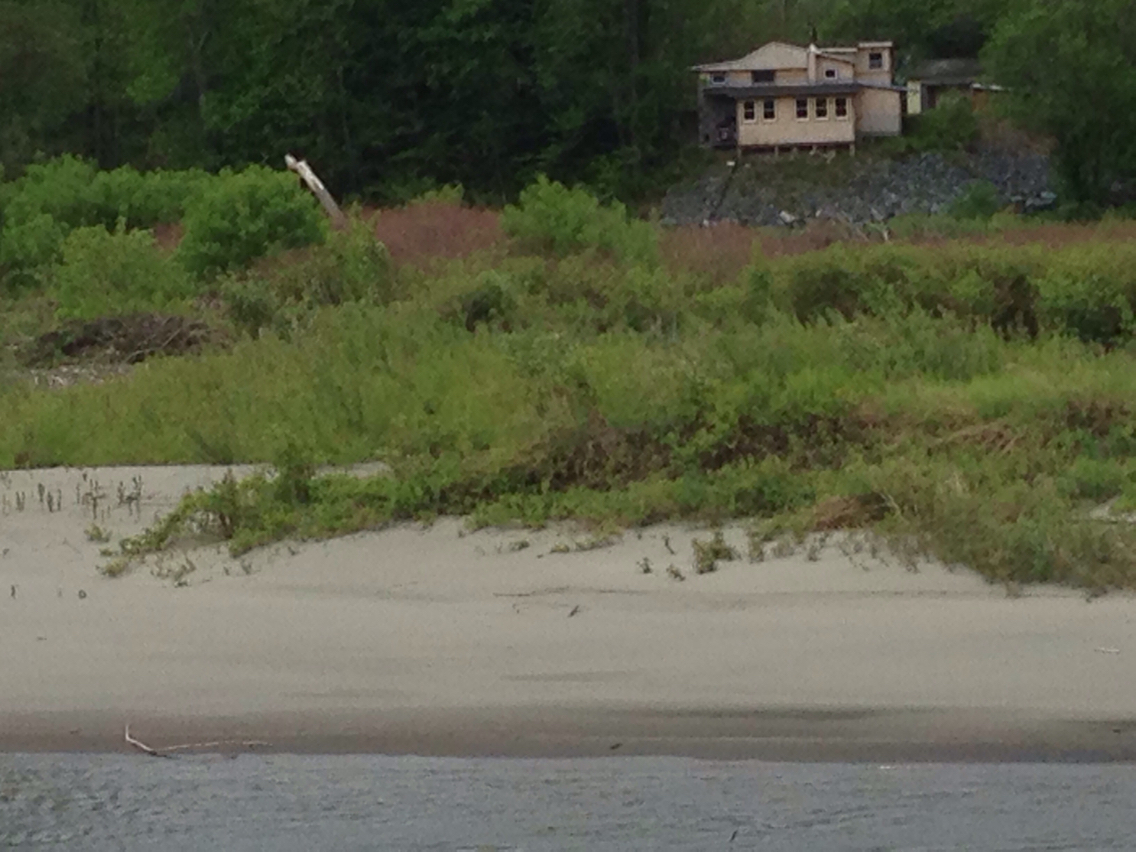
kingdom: Plantae
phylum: Tracheophyta
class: Magnoliopsida
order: Caryophyllales
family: Polygonaceae
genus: Reynoutria
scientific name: Reynoutria japonica
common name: Japanese knotweed
